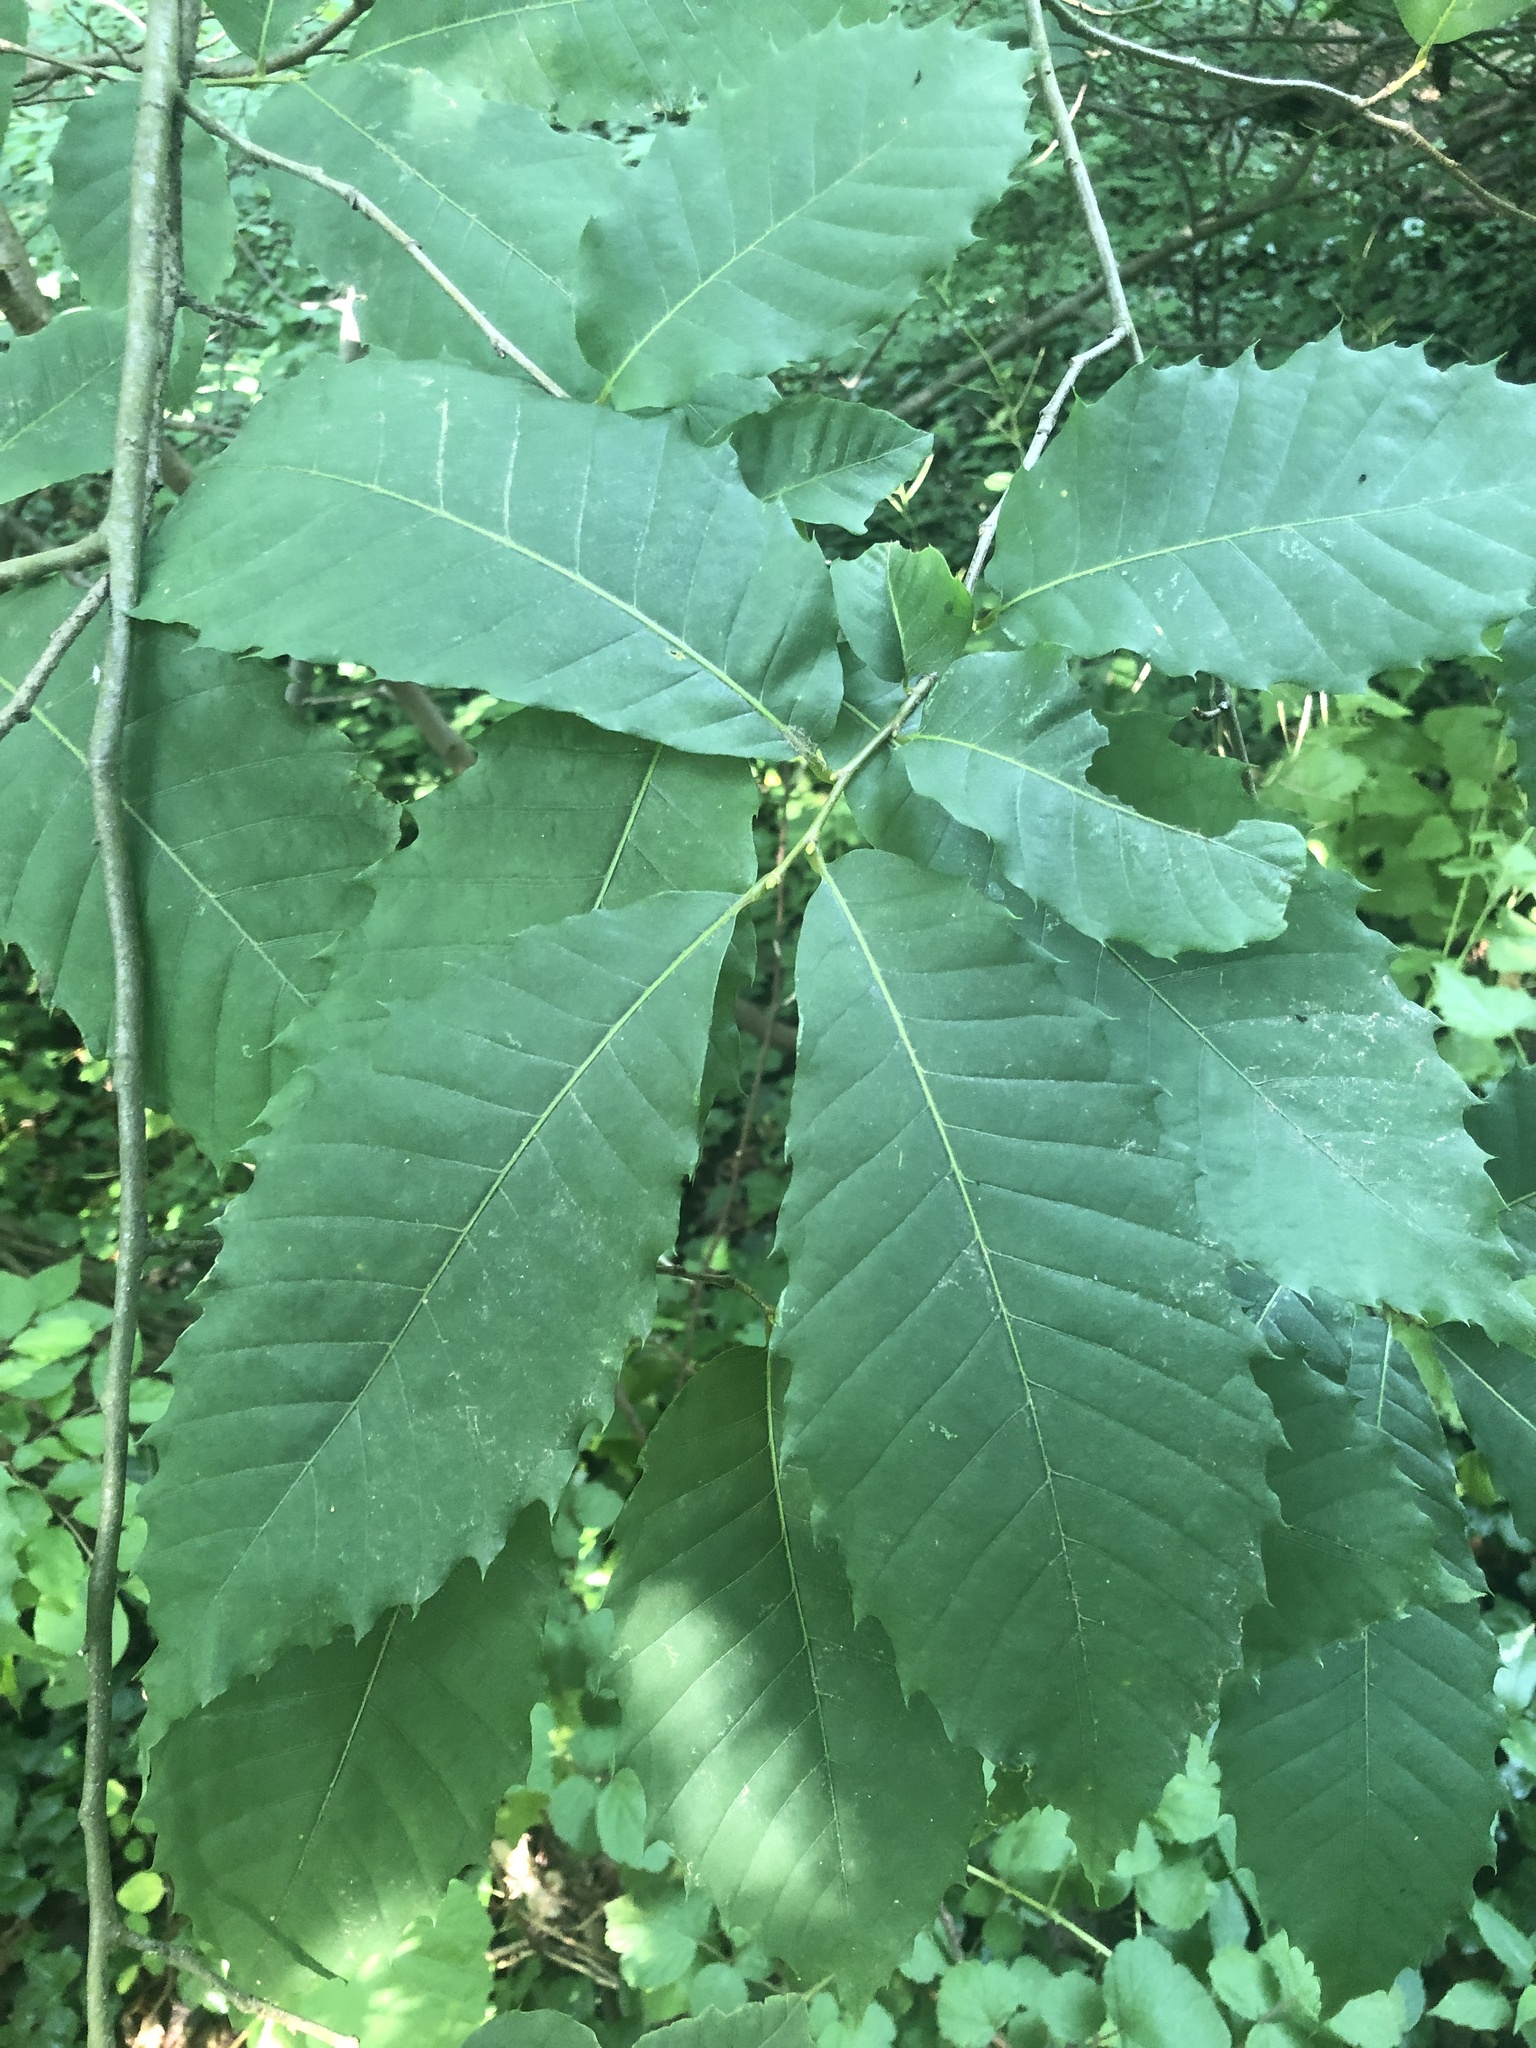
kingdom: Plantae
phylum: Tracheophyta
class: Magnoliopsida
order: Fagales
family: Fagaceae
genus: Castanea
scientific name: Castanea dentata
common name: American chestnut
